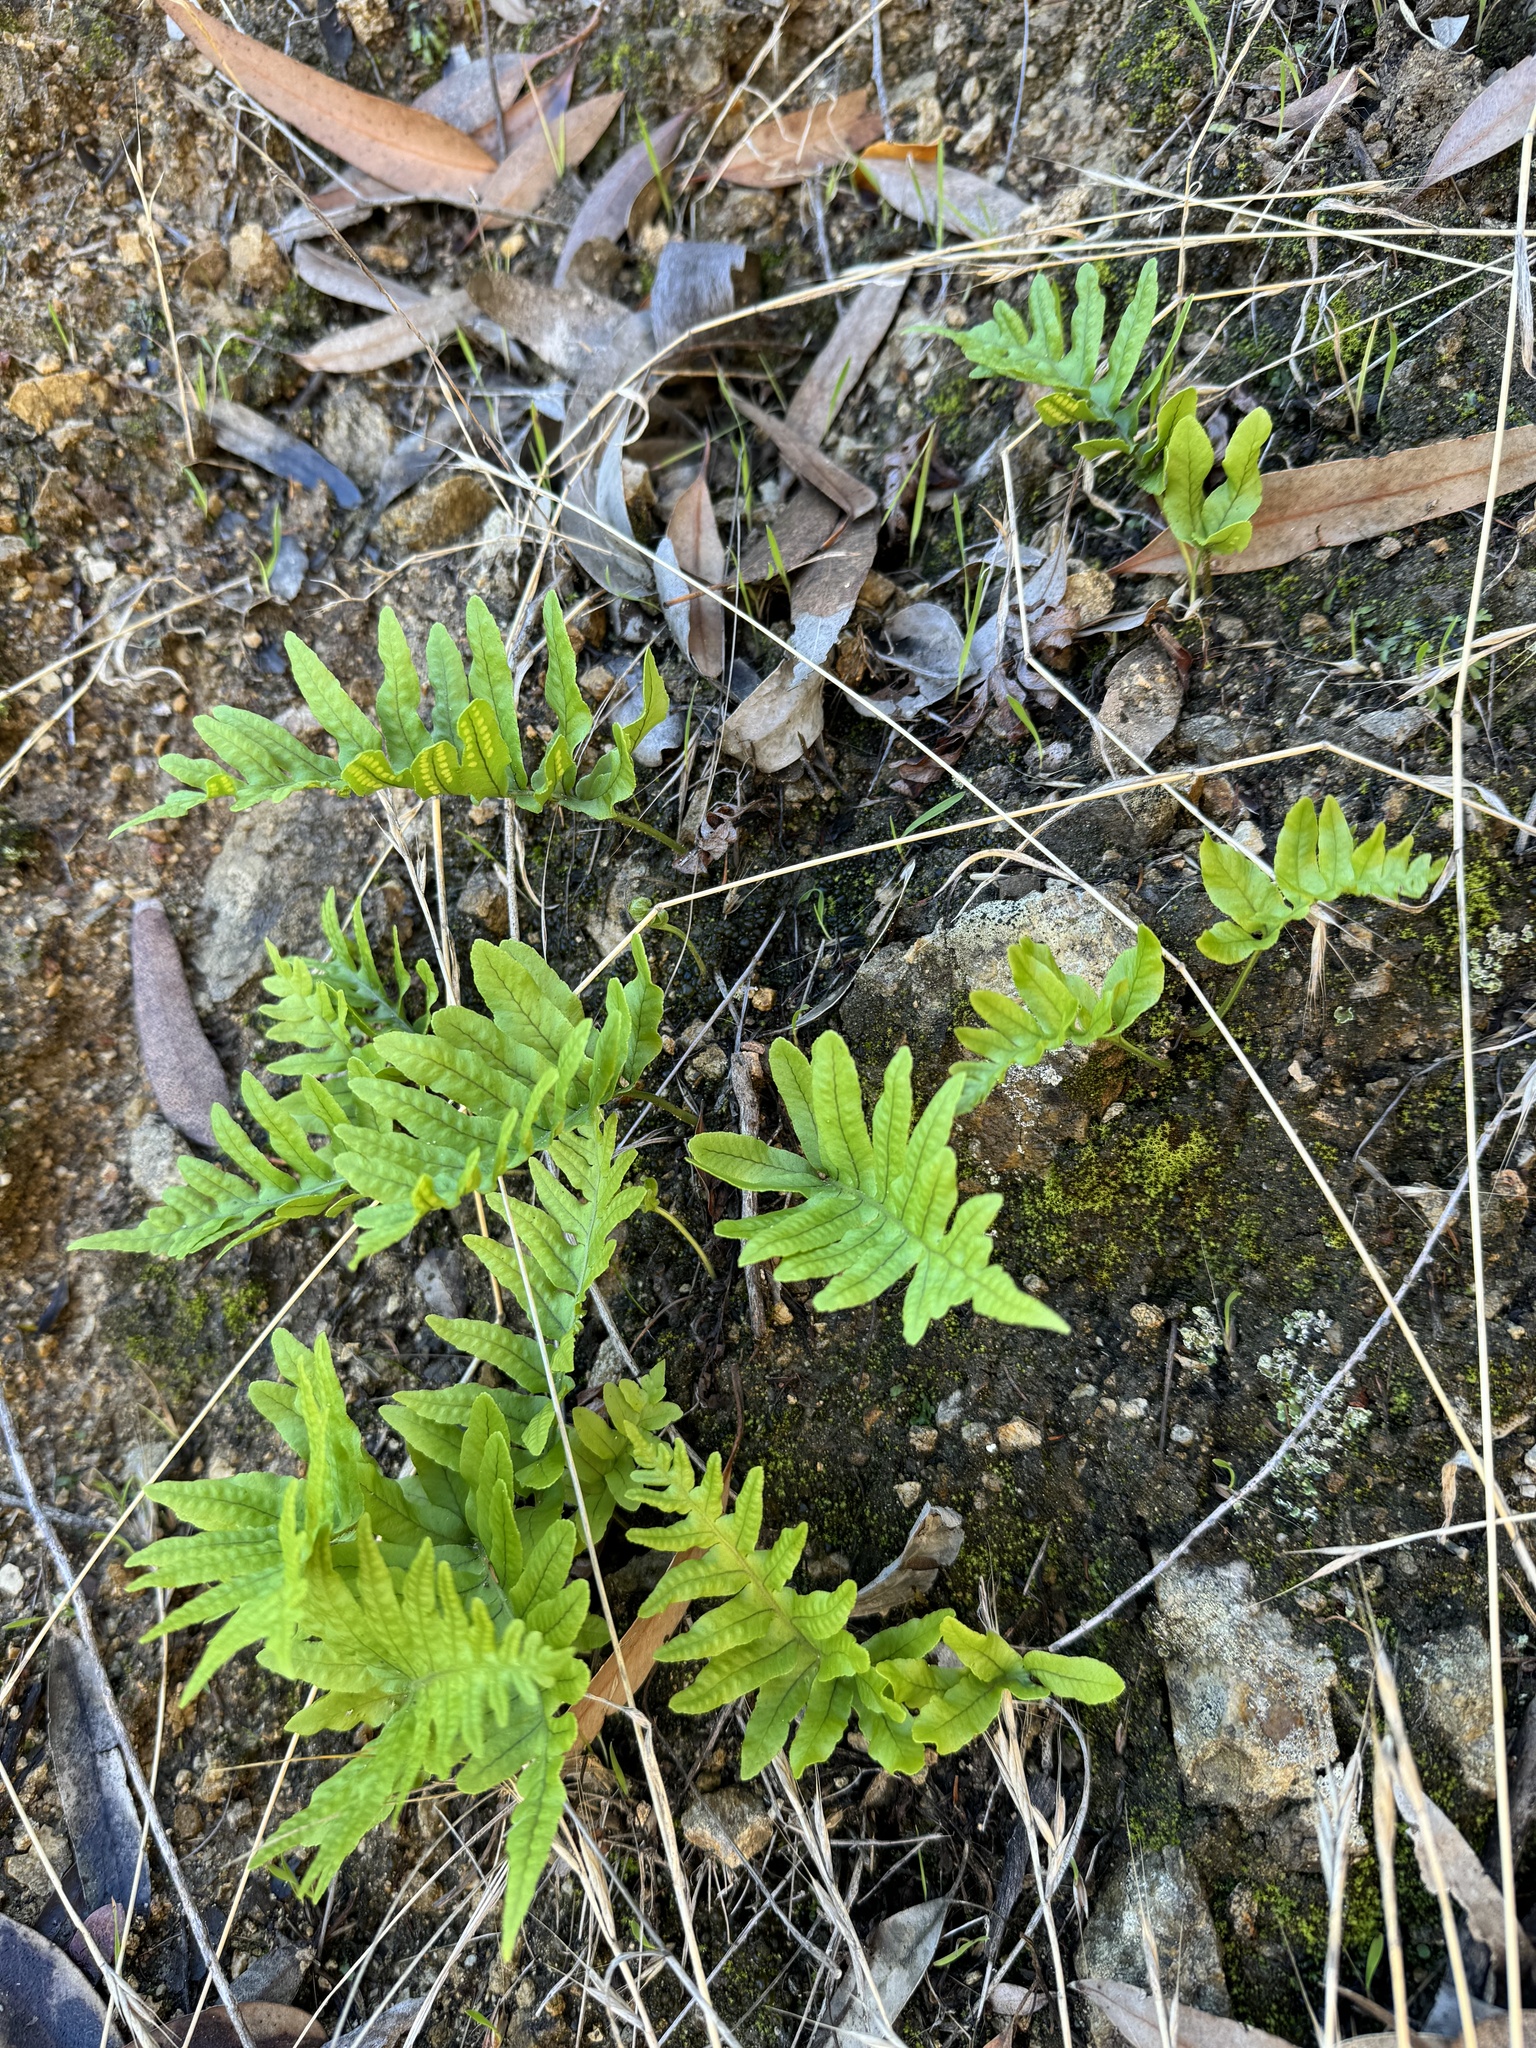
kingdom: Plantae
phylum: Tracheophyta
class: Polypodiopsida
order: Polypodiales
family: Polypodiaceae
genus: Polypodium
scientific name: Polypodium californicum
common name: California polypody
